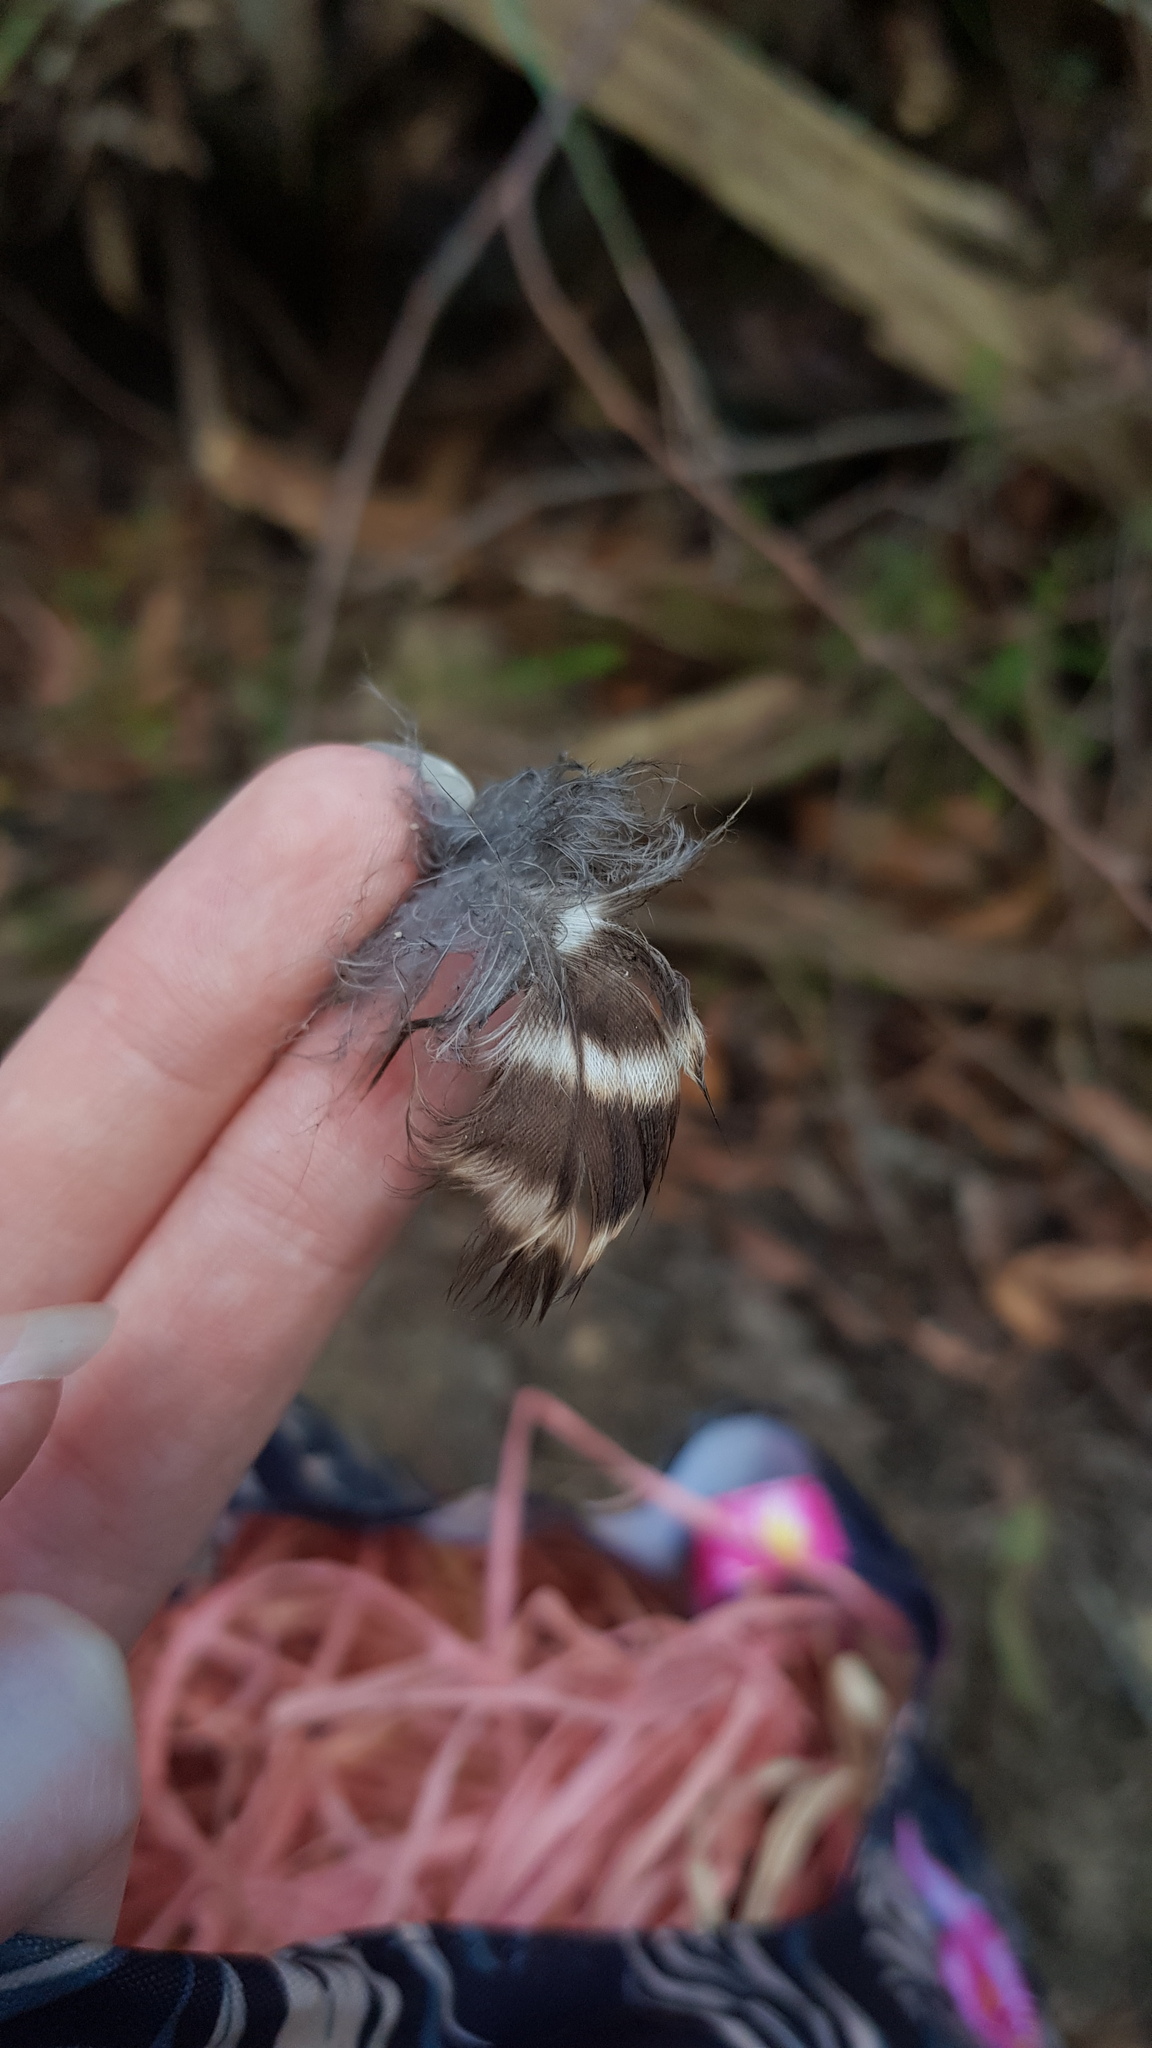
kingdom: Animalia
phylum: Chordata
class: Aves
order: Strigiformes
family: Strigidae
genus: Ninox
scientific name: Ninox strenua
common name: Powerful owl
